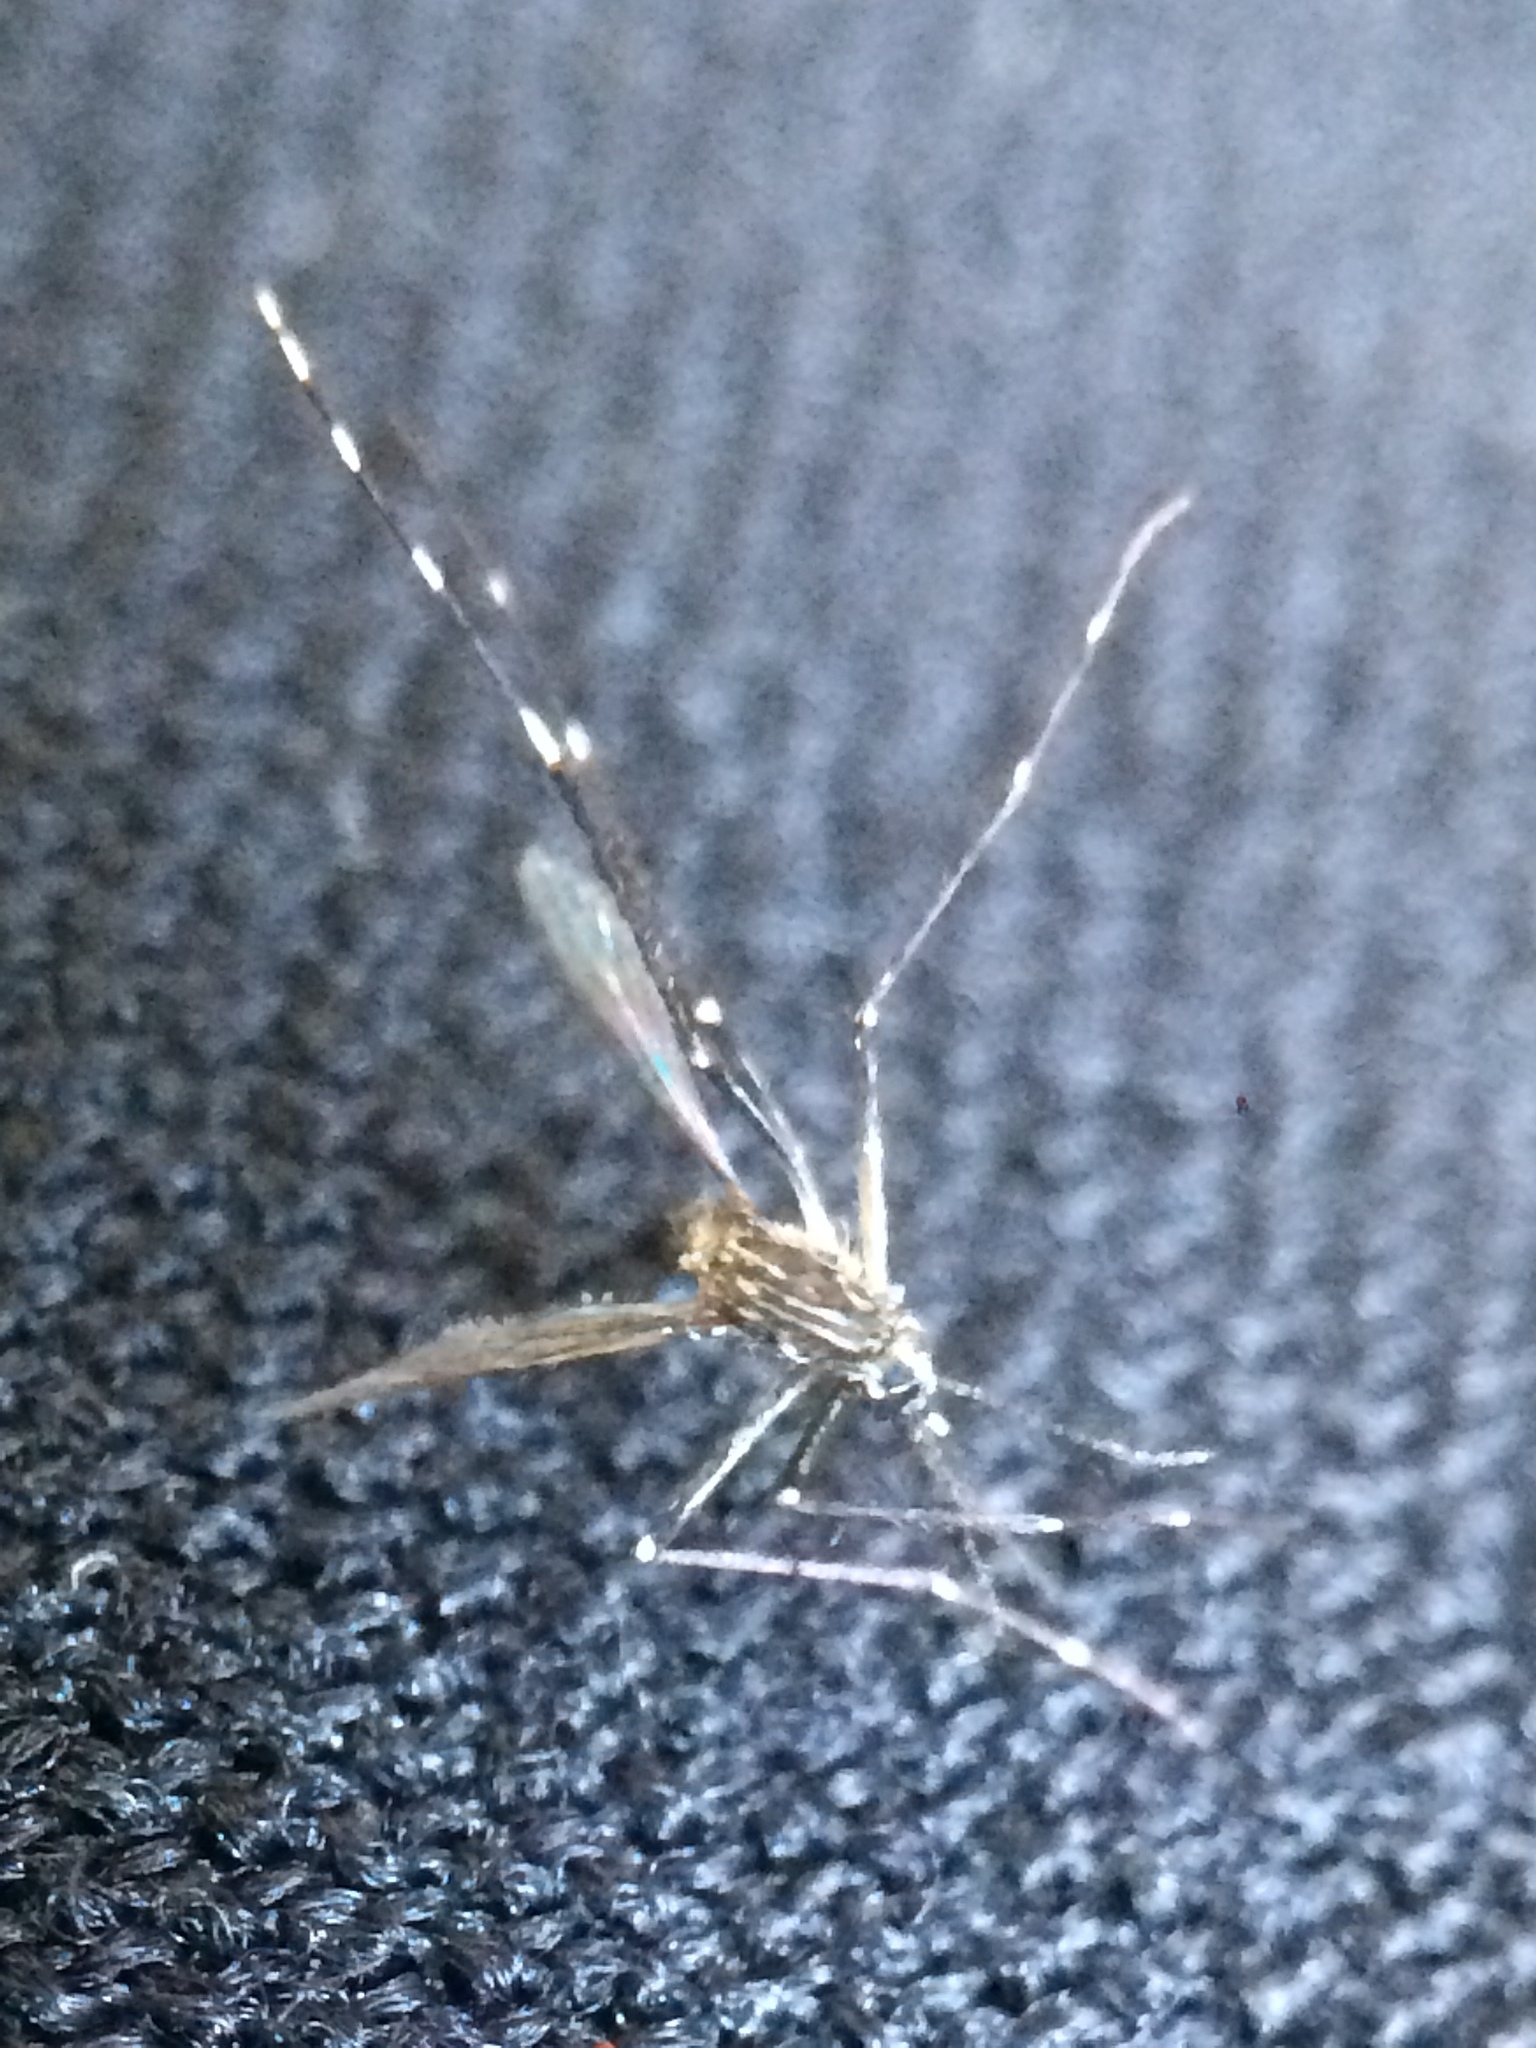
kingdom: Animalia
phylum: Arthropoda
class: Insecta
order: Diptera
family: Culicidae
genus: Aedes
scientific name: Aedes aegypti
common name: Yellow fever mosquito
